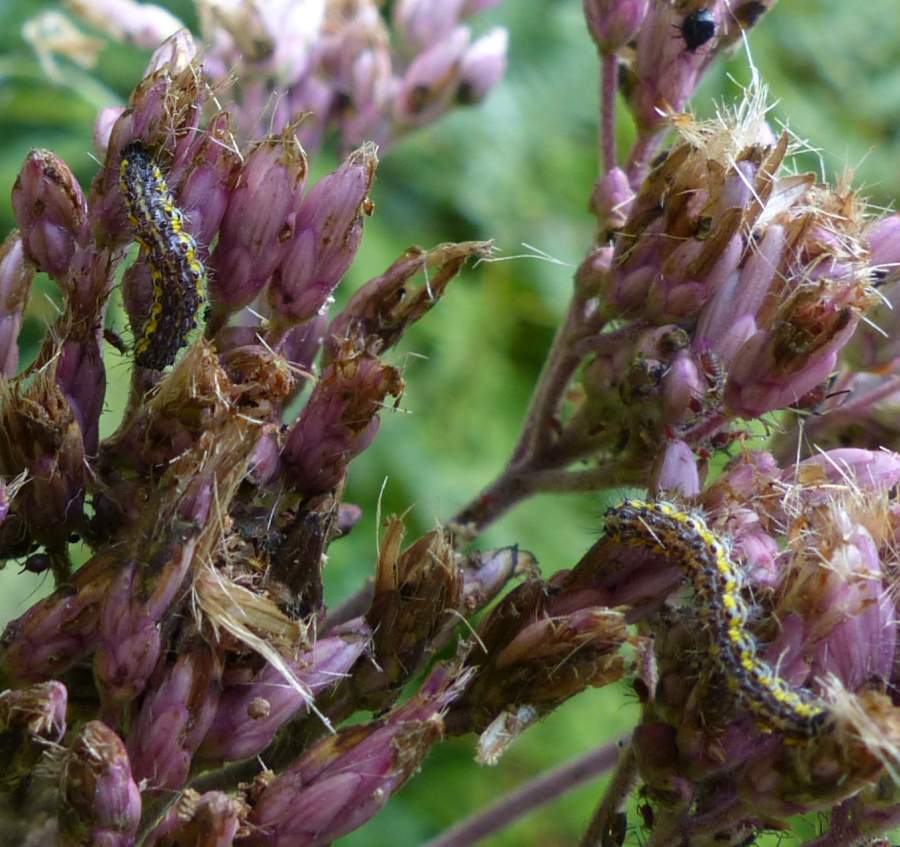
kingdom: Animalia
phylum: Arthropoda
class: Insecta
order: Lepidoptera
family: Erebidae
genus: Haploa
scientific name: Haploa contigua
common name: Neighbor moth
